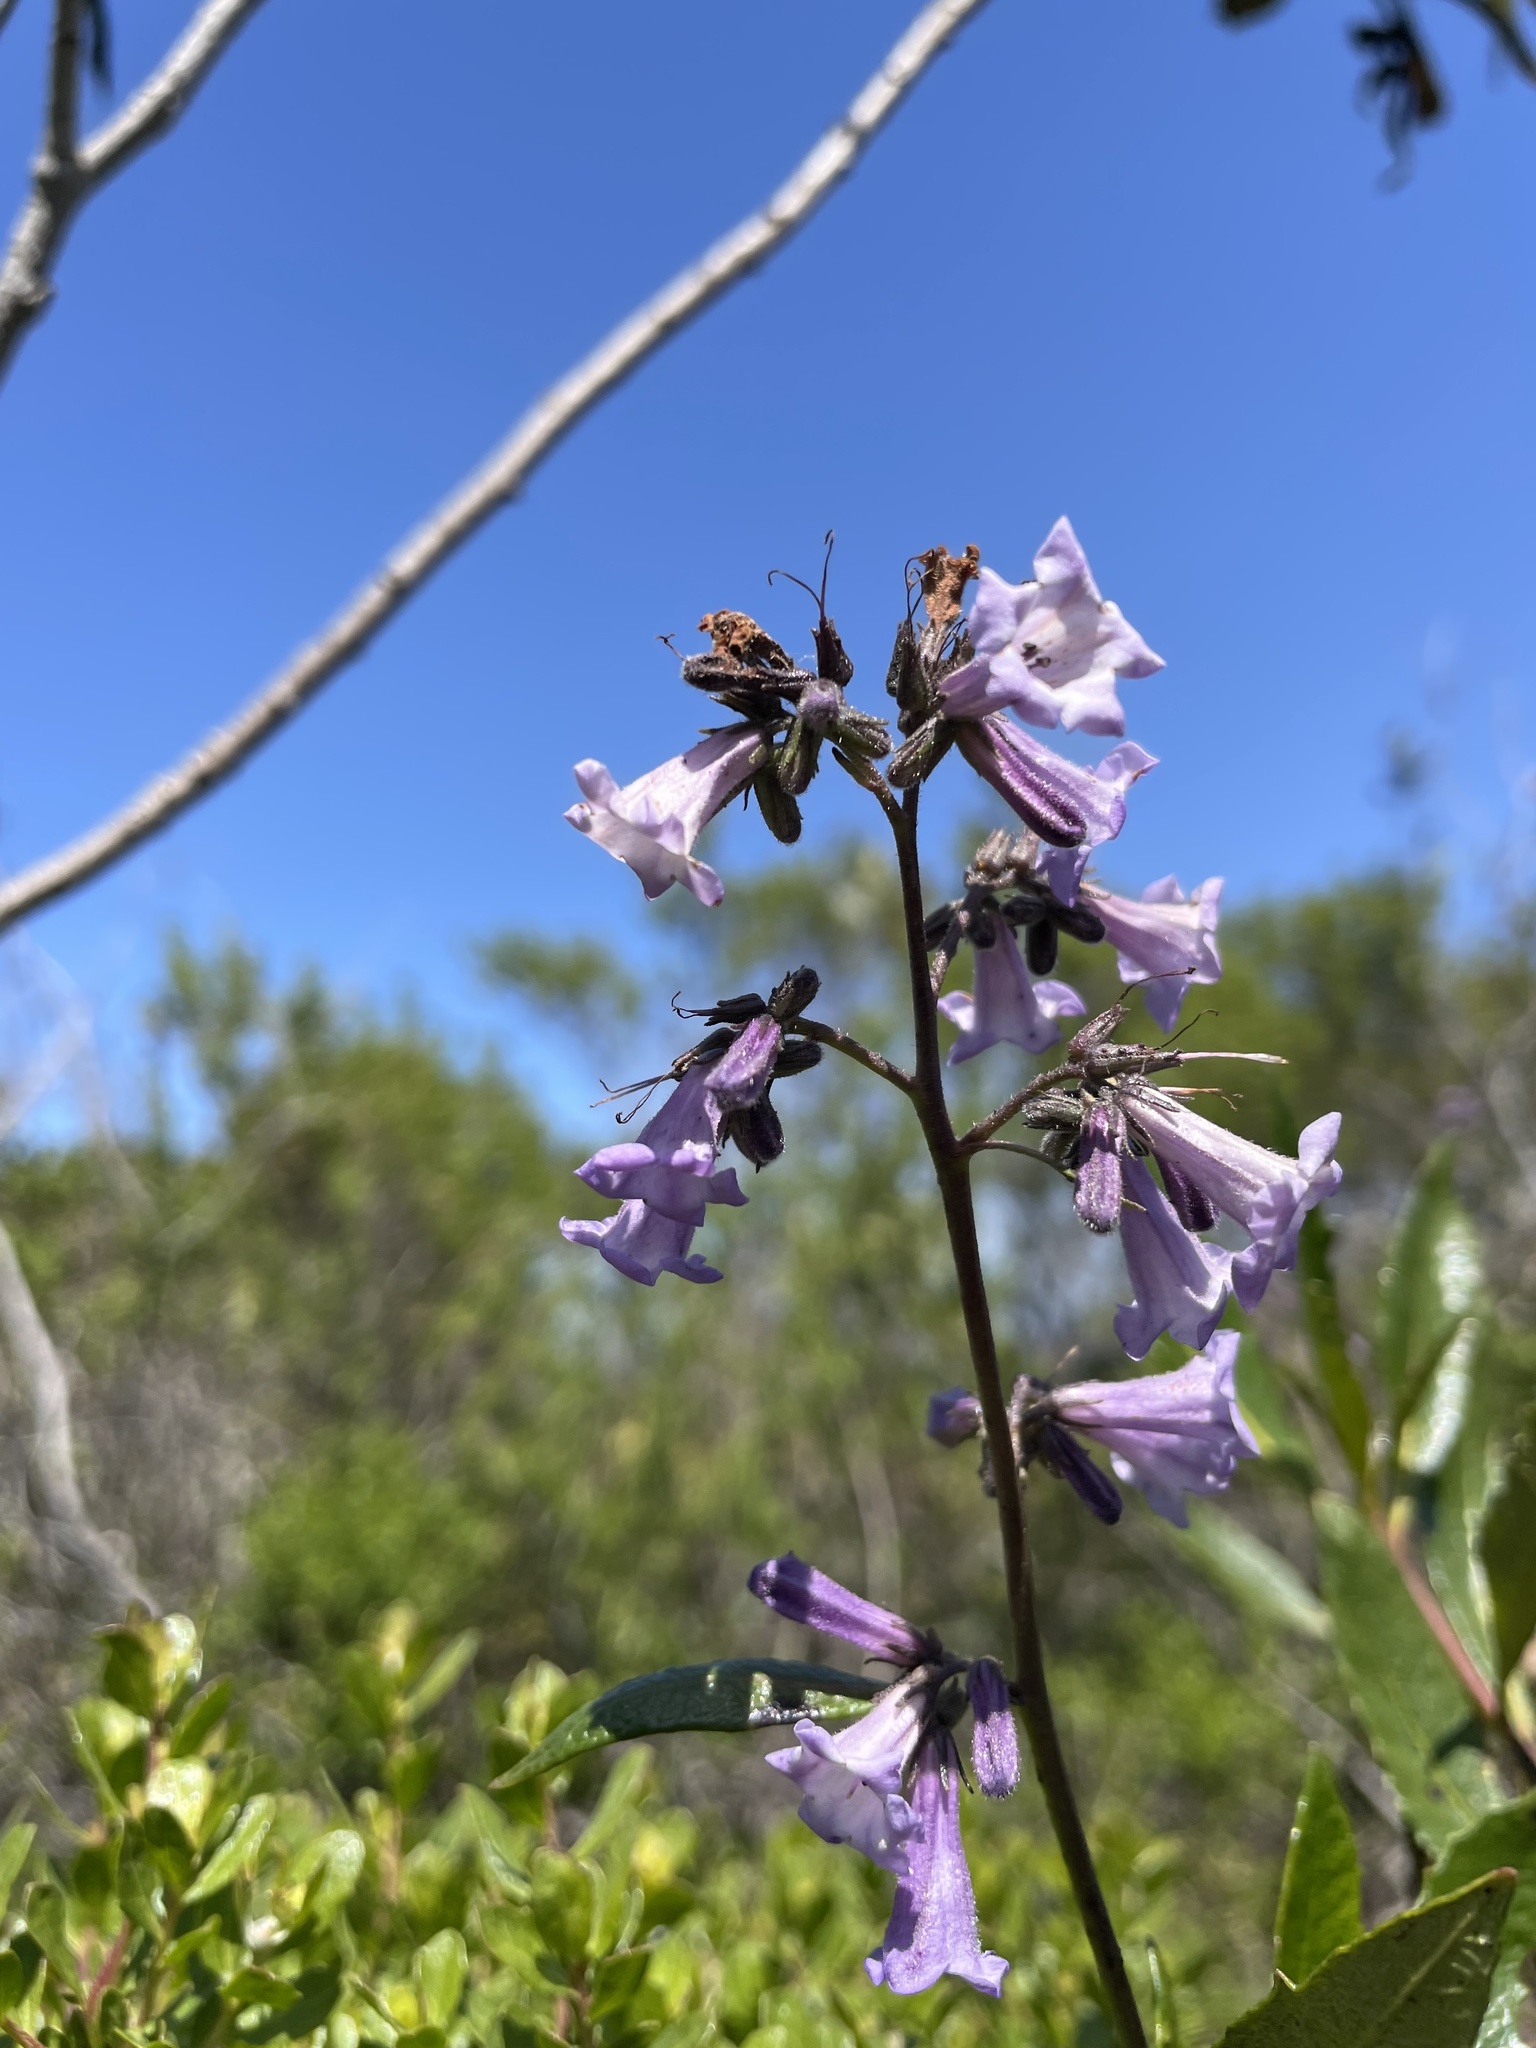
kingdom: Plantae
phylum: Tracheophyta
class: Magnoliopsida
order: Boraginales
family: Namaceae
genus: Eriodictyon
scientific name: Eriodictyon californicum
